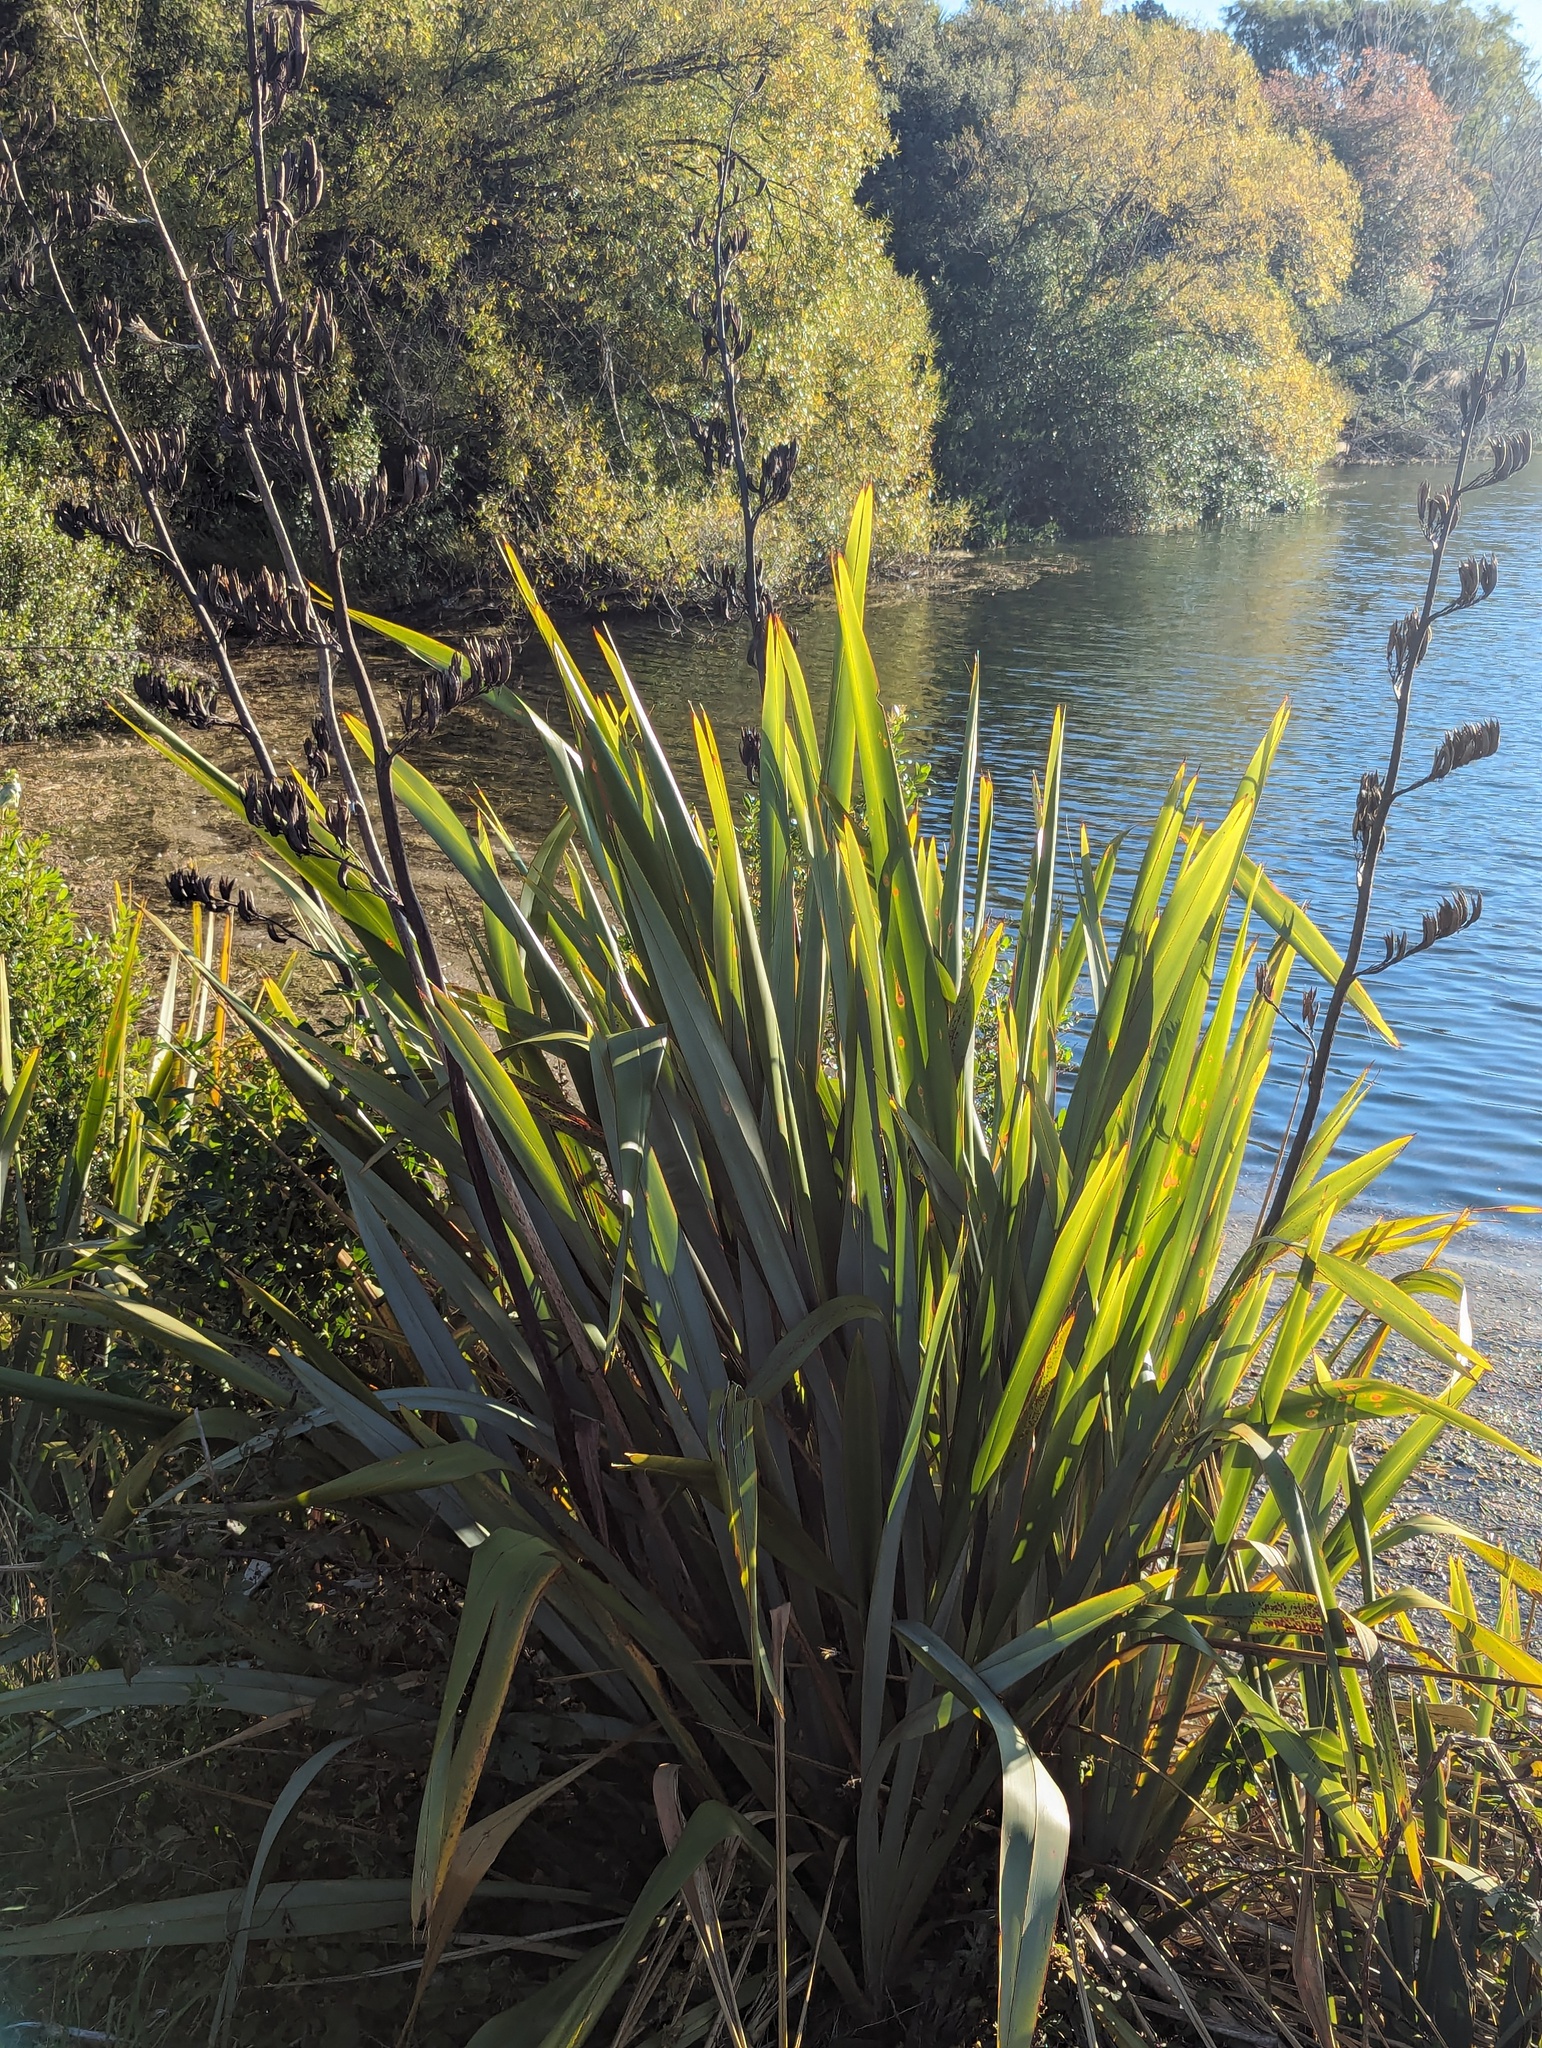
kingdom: Plantae
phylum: Tracheophyta
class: Liliopsida
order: Asparagales
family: Asphodelaceae
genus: Phormium
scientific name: Phormium tenax
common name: New zealand flax
